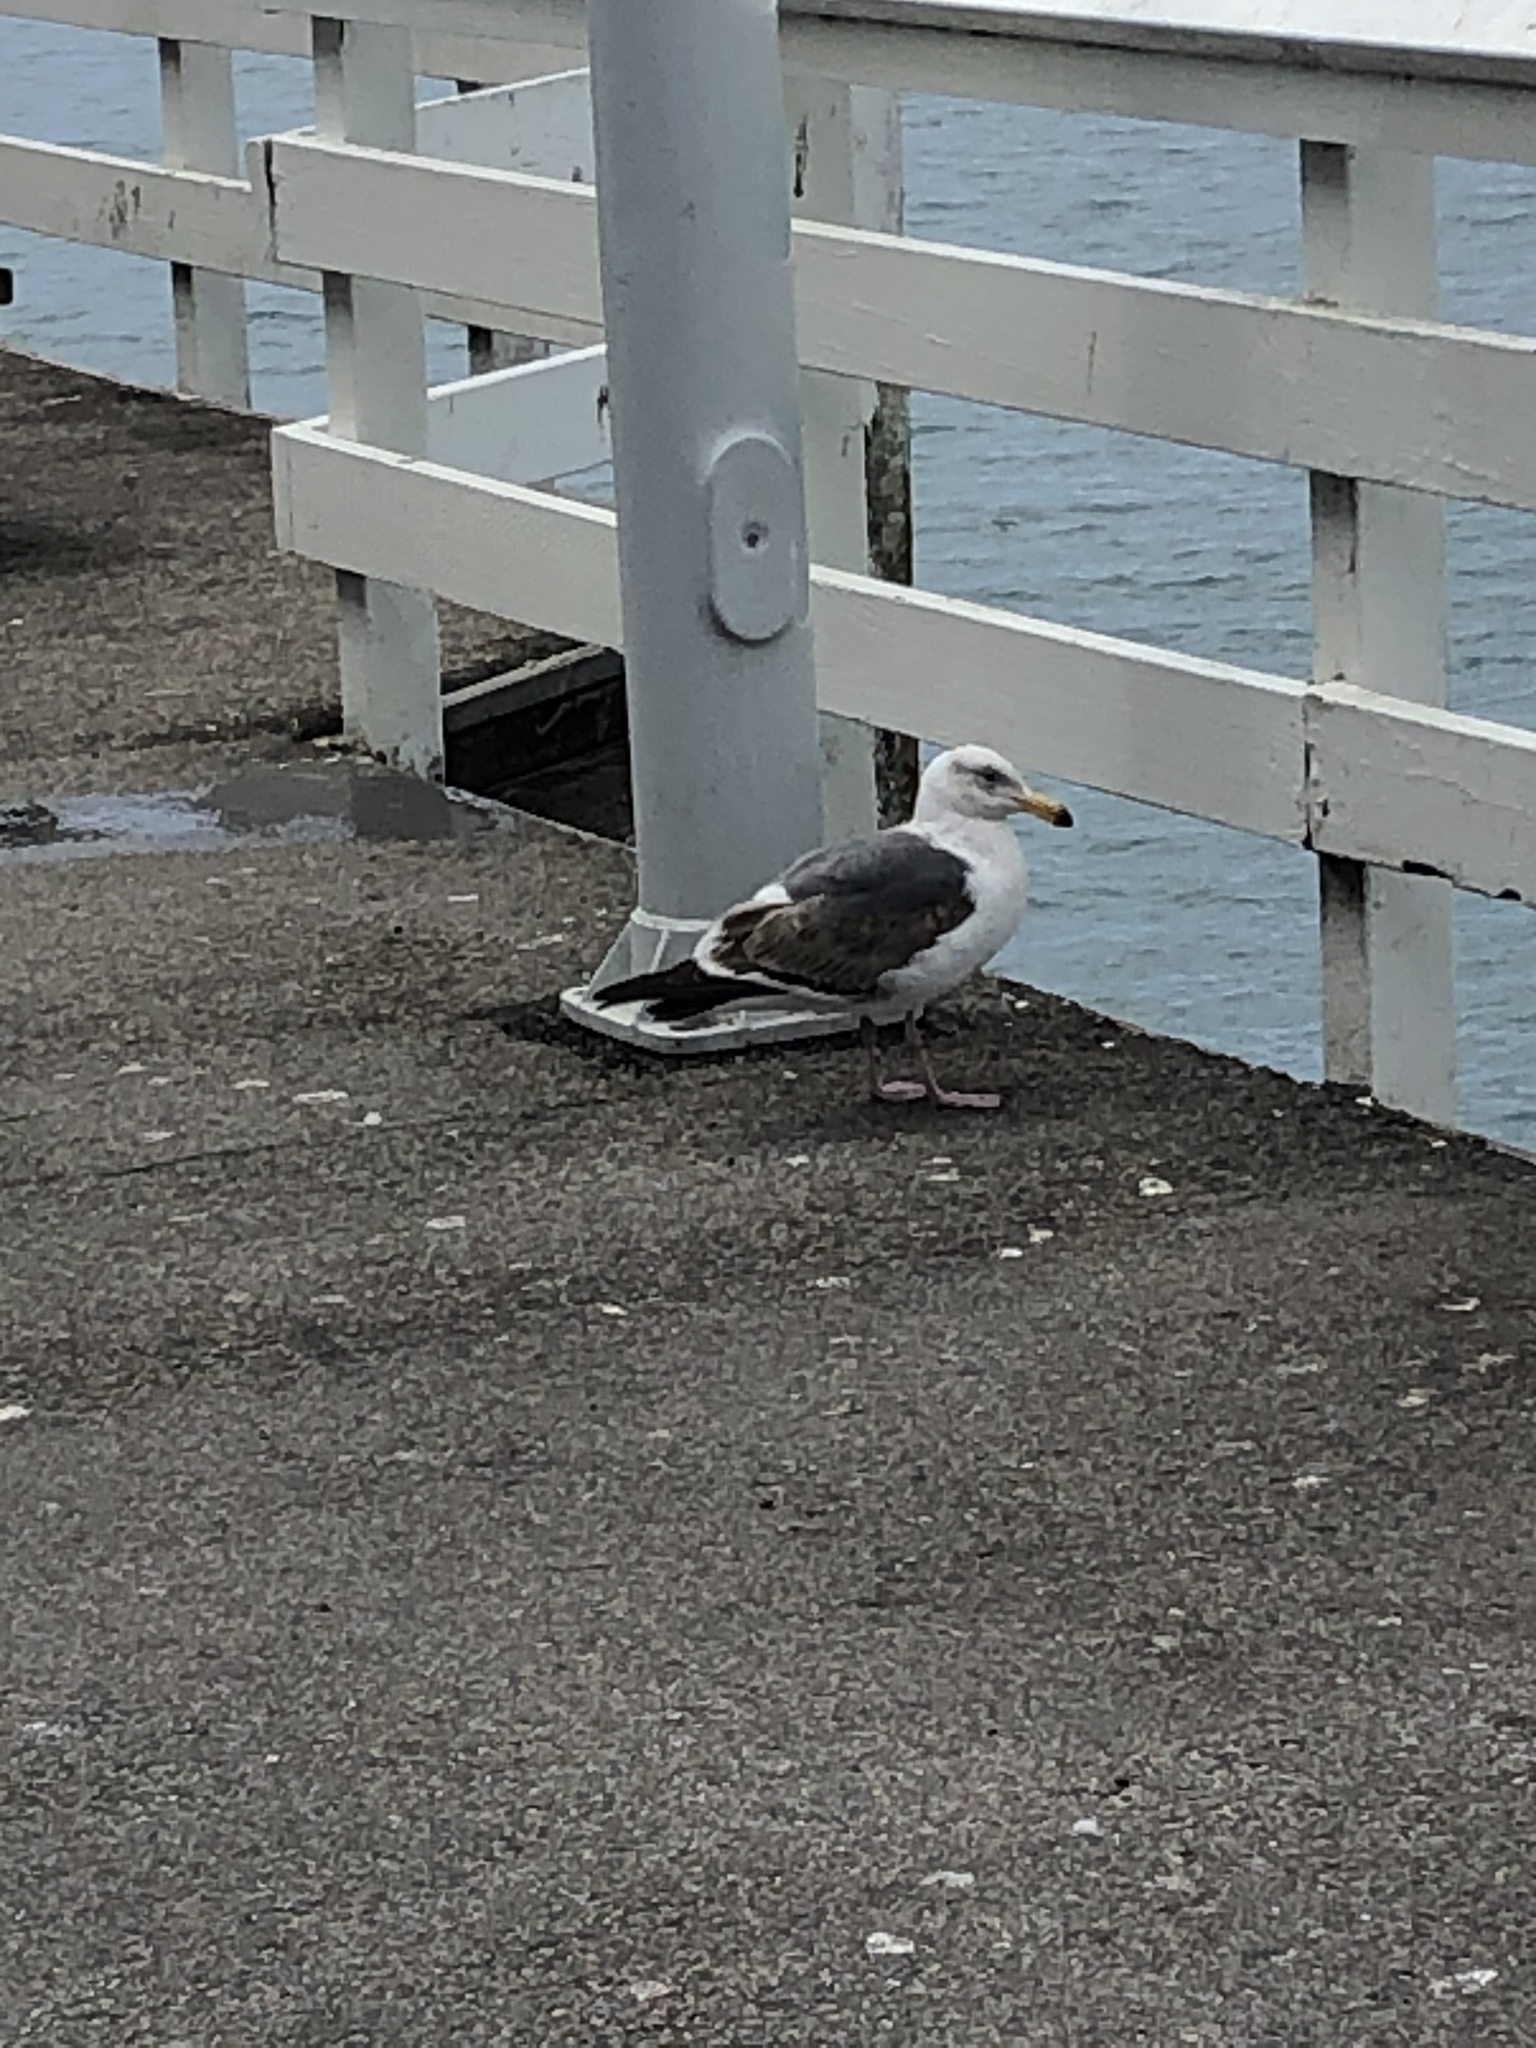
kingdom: Animalia
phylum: Chordata
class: Aves
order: Charadriiformes
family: Laridae
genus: Larus
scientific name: Larus occidentalis
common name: Western gull
